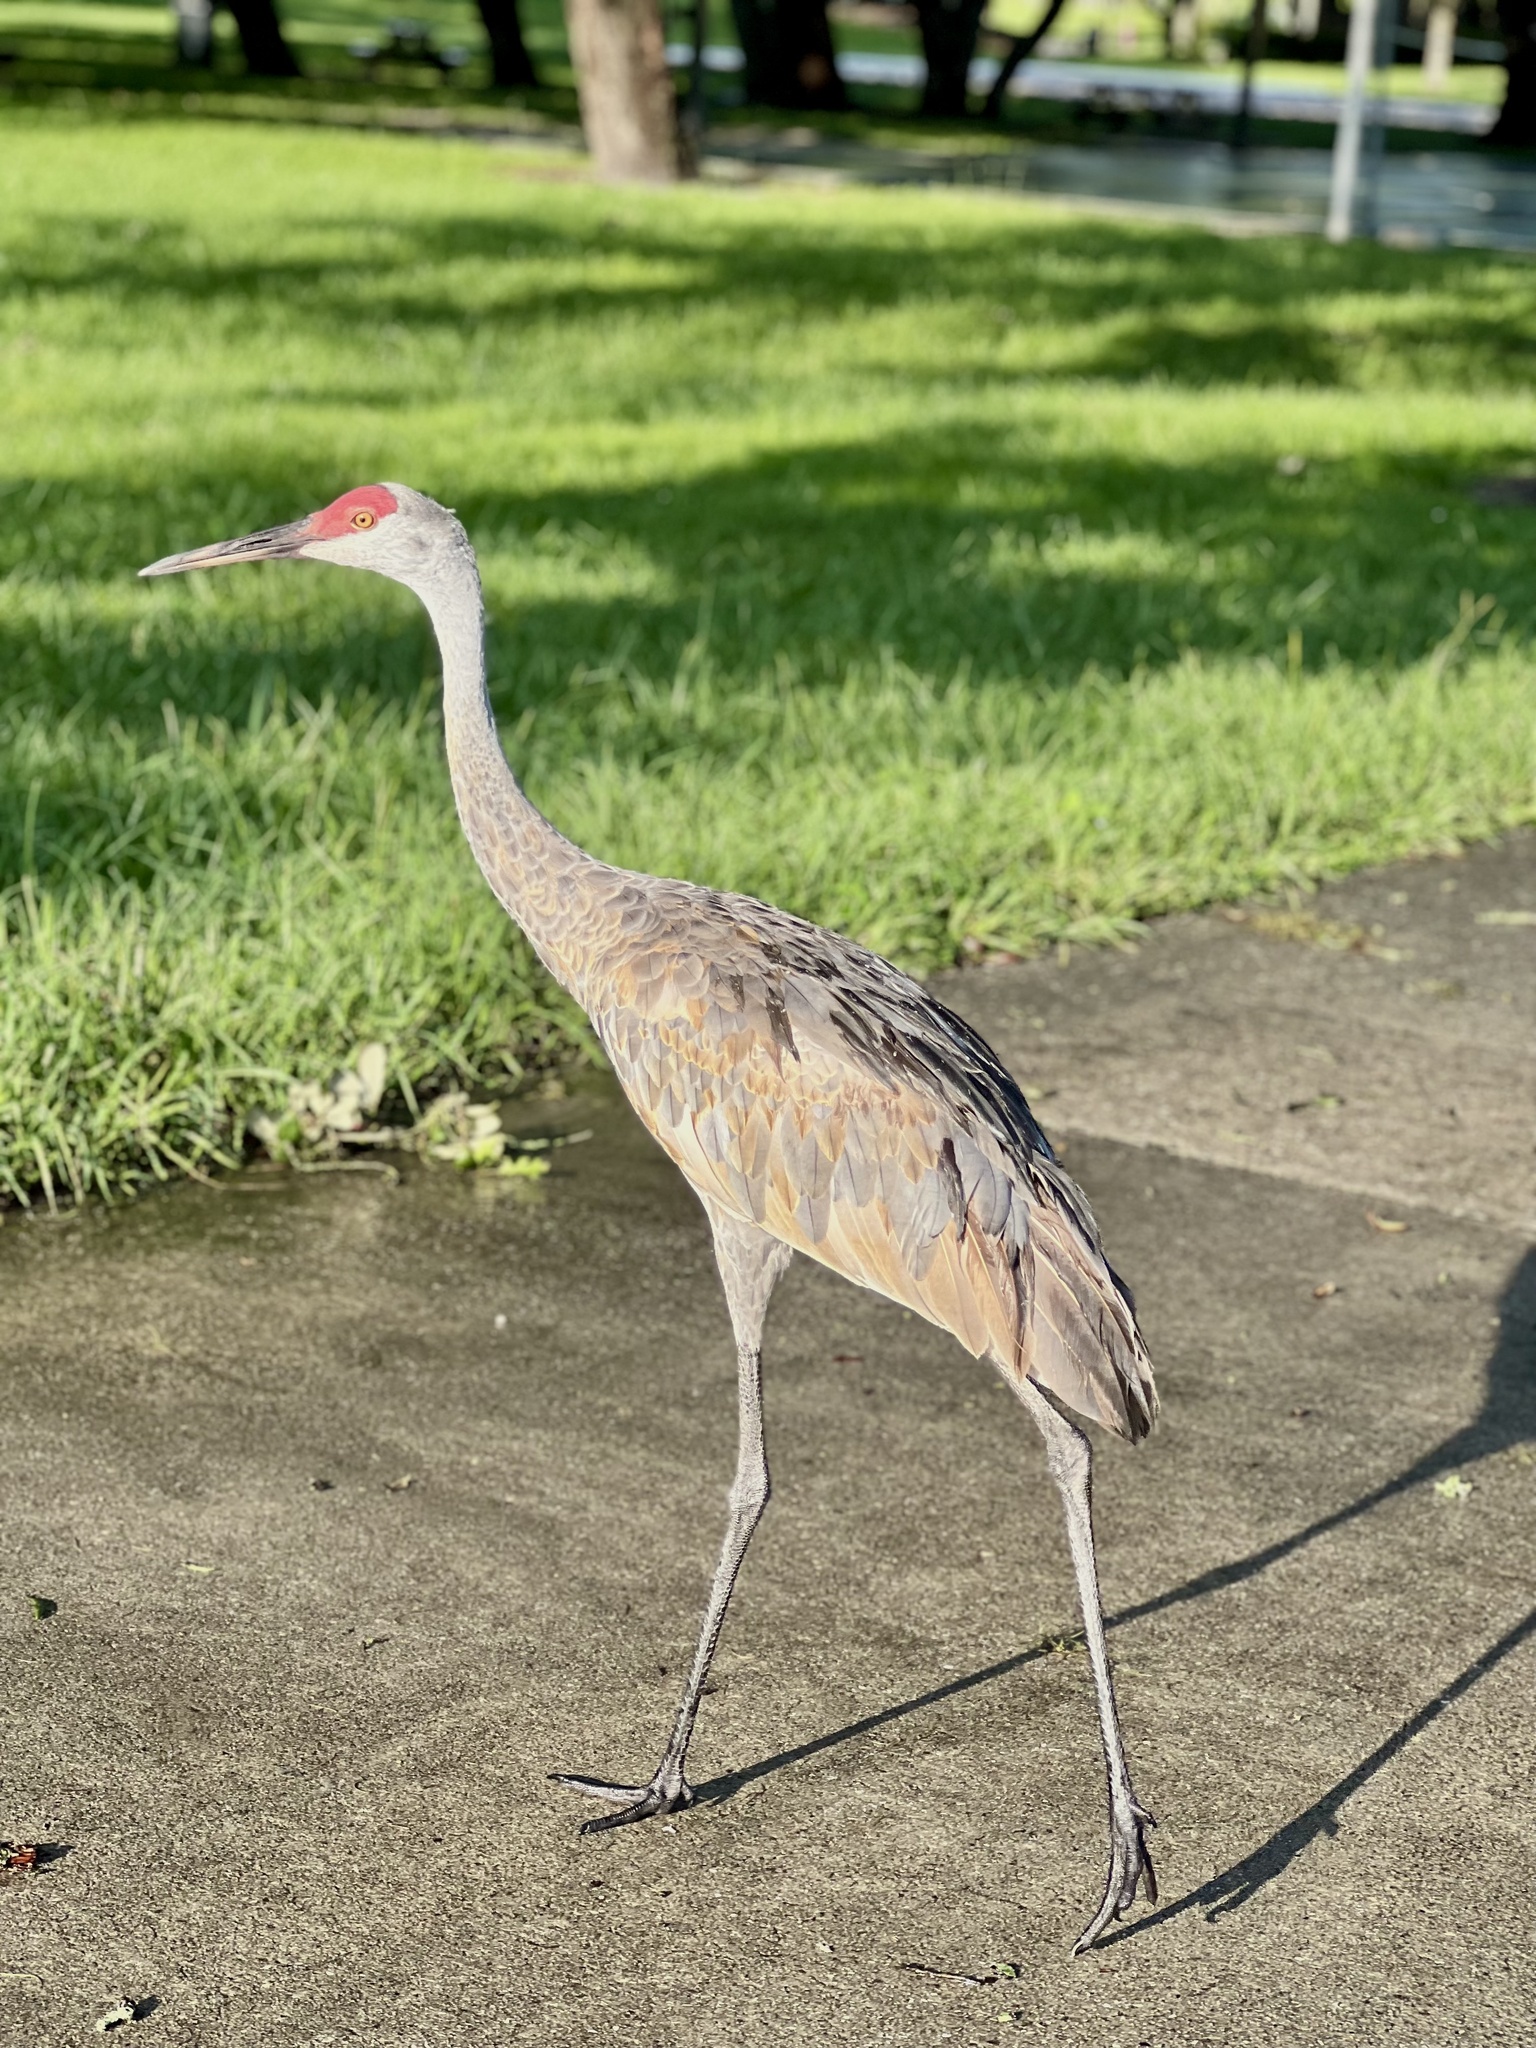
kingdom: Animalia
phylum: Chordata
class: Aves
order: Gruiformes
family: Gruidae
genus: Grus
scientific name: Grus canadensis
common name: Sandhill crane
